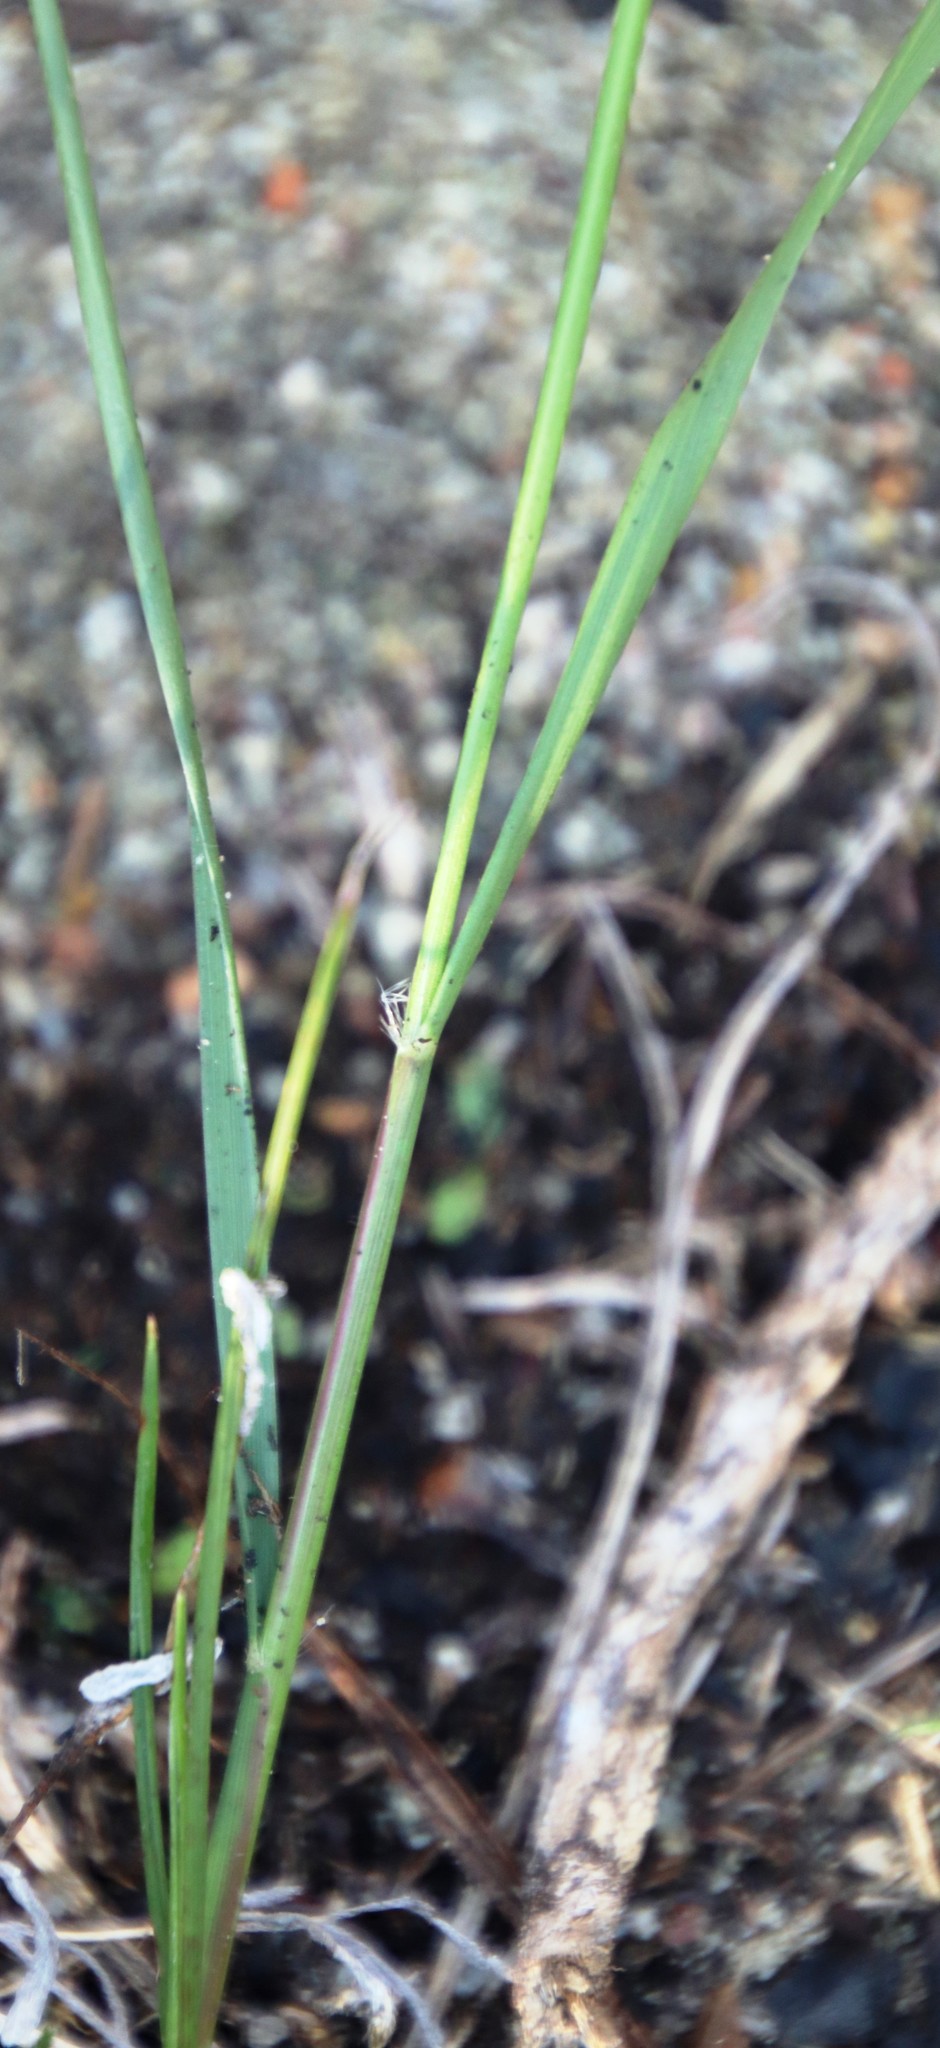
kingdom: Plantae
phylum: Tracheophyta
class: Liliopsida
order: Poales
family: Poaceae
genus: Ehrharta
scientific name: Ehrharta calycina
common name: Perennial veldtgrass
